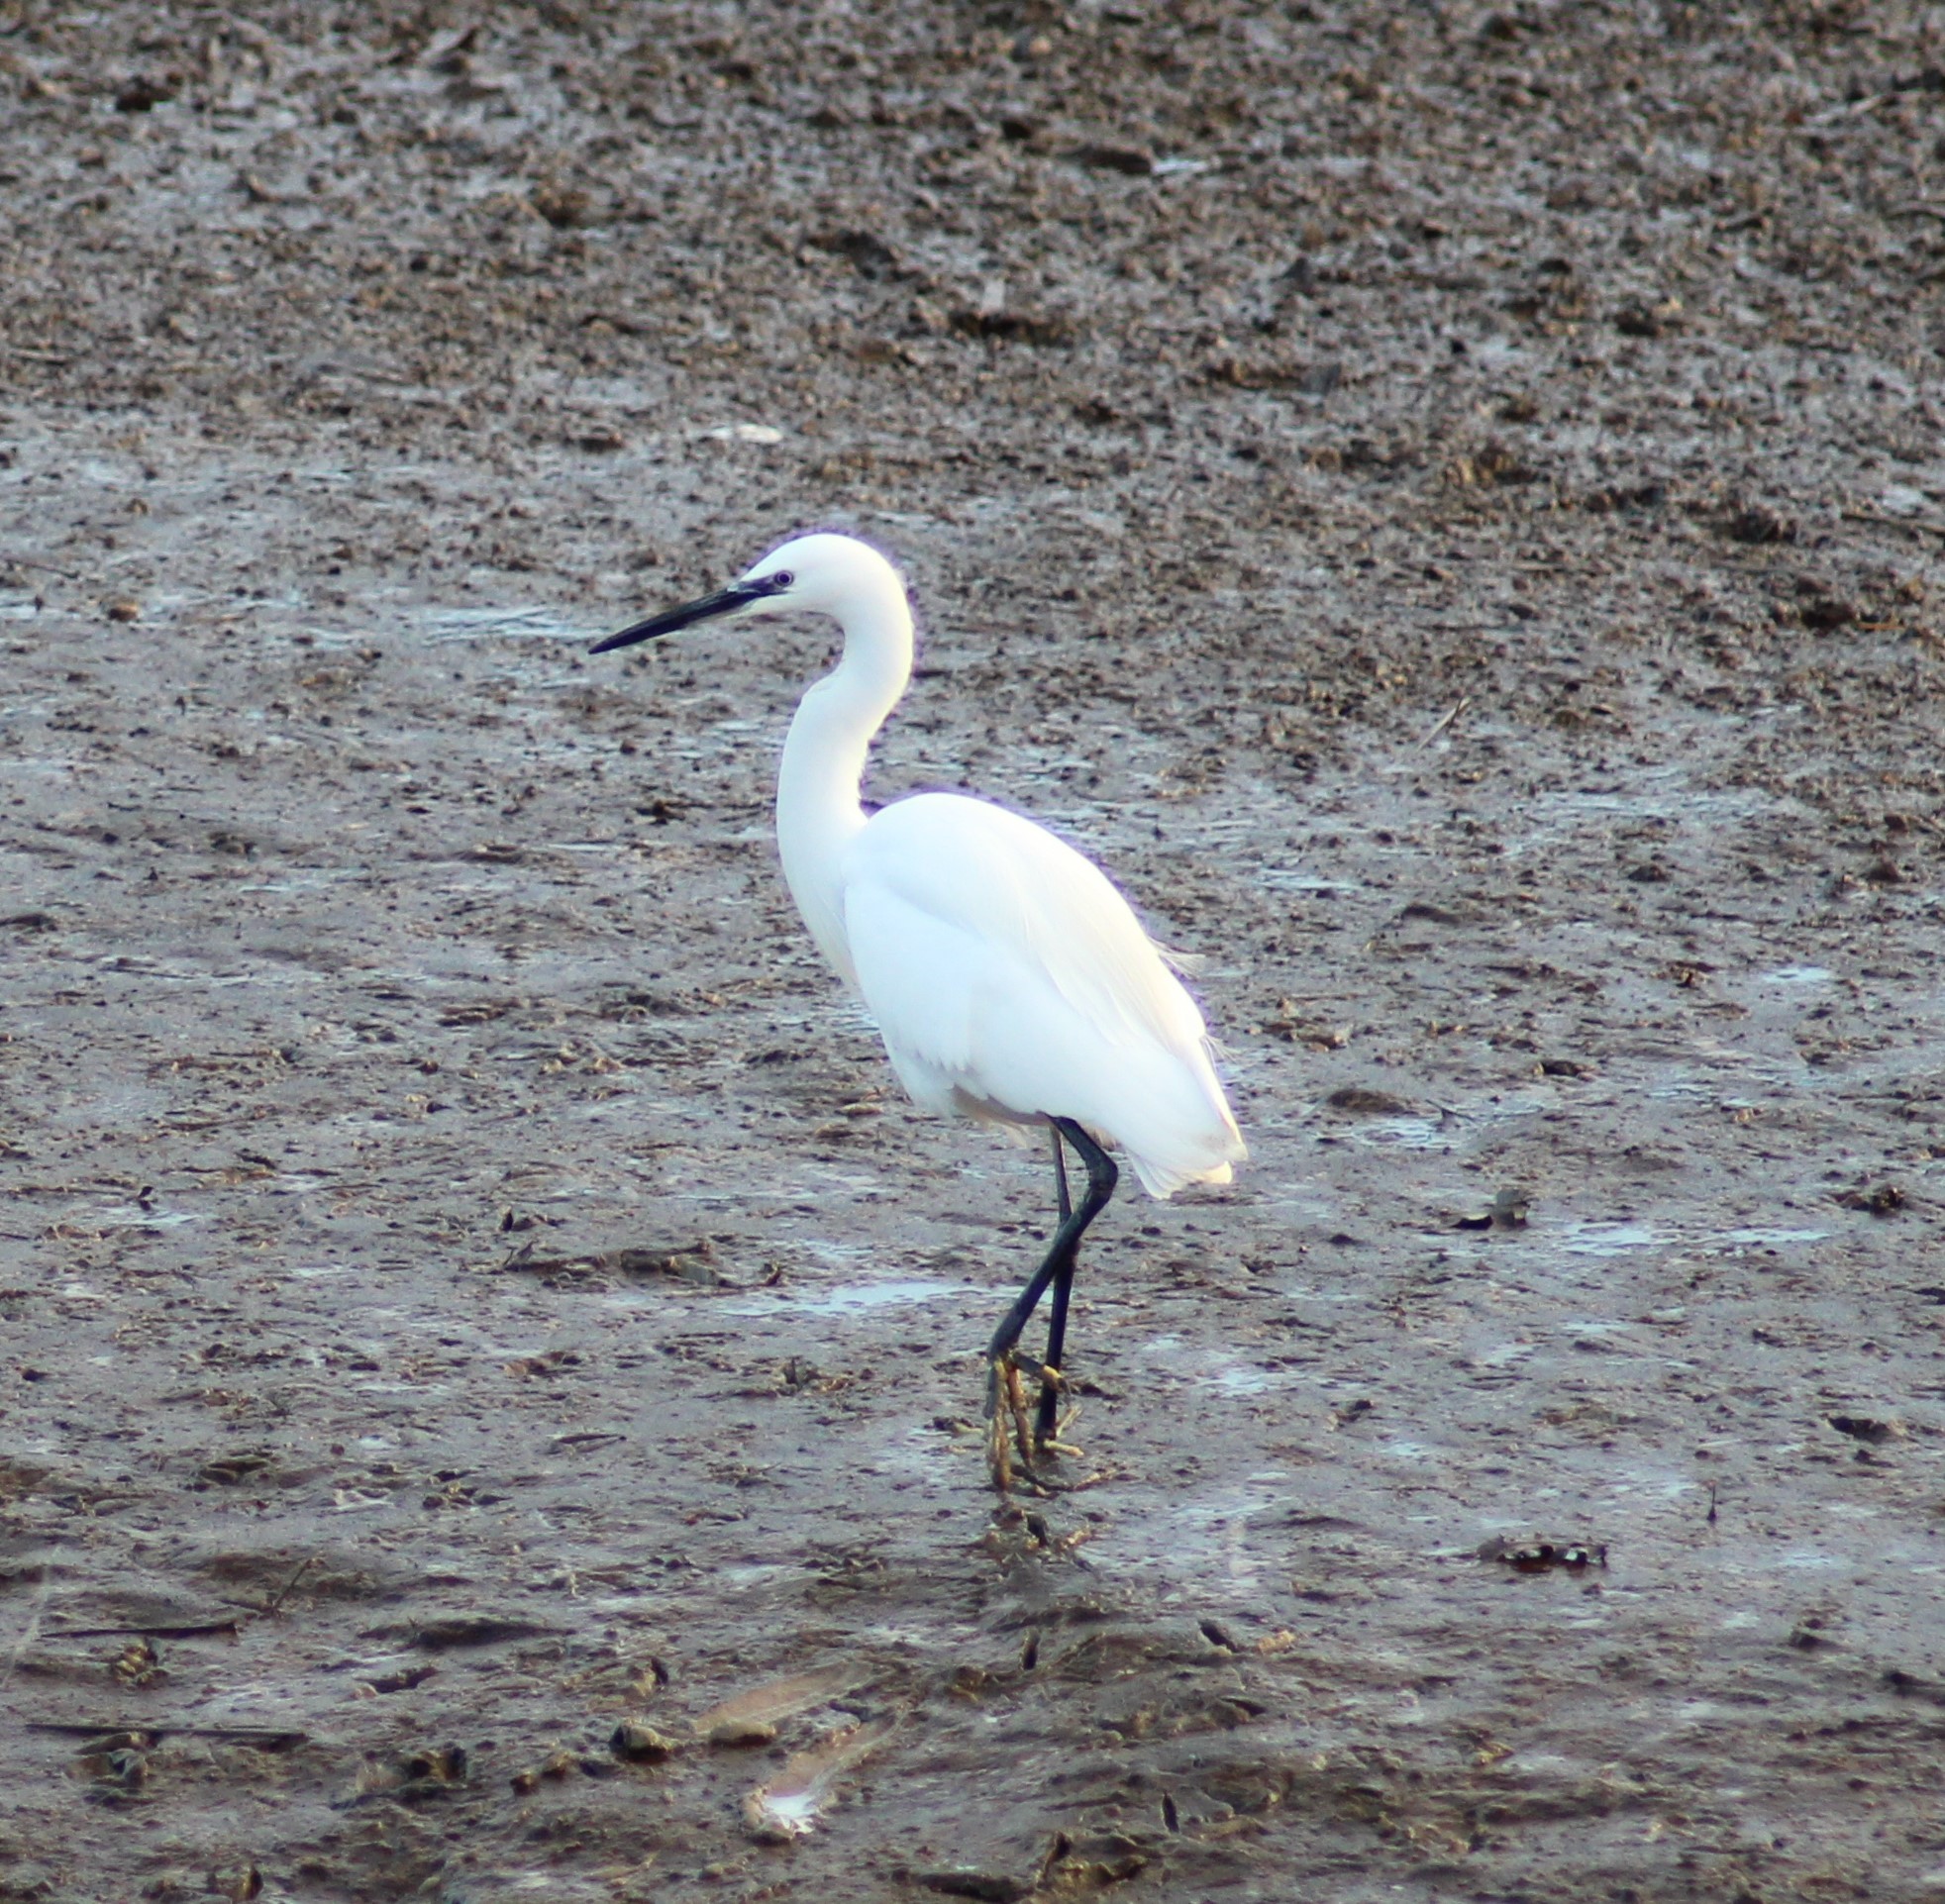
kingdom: Animalia
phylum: Chordata
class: Aves
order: Pelecaniformes
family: Ardeidae
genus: Egretta
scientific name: Egretta garzetta
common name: Little egret
